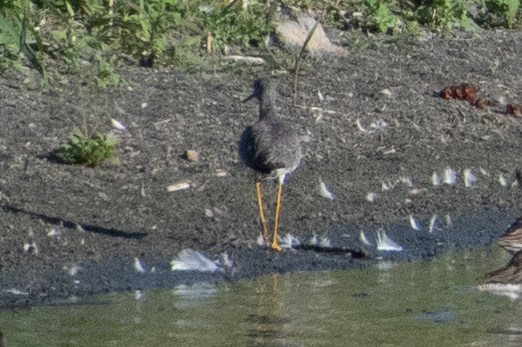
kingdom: Animalia
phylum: Chordata
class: Aves
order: Charadriiformes
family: Scolopacidae
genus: Tringa
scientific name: Tringa melanoleuca
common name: Greater yellowlegs
